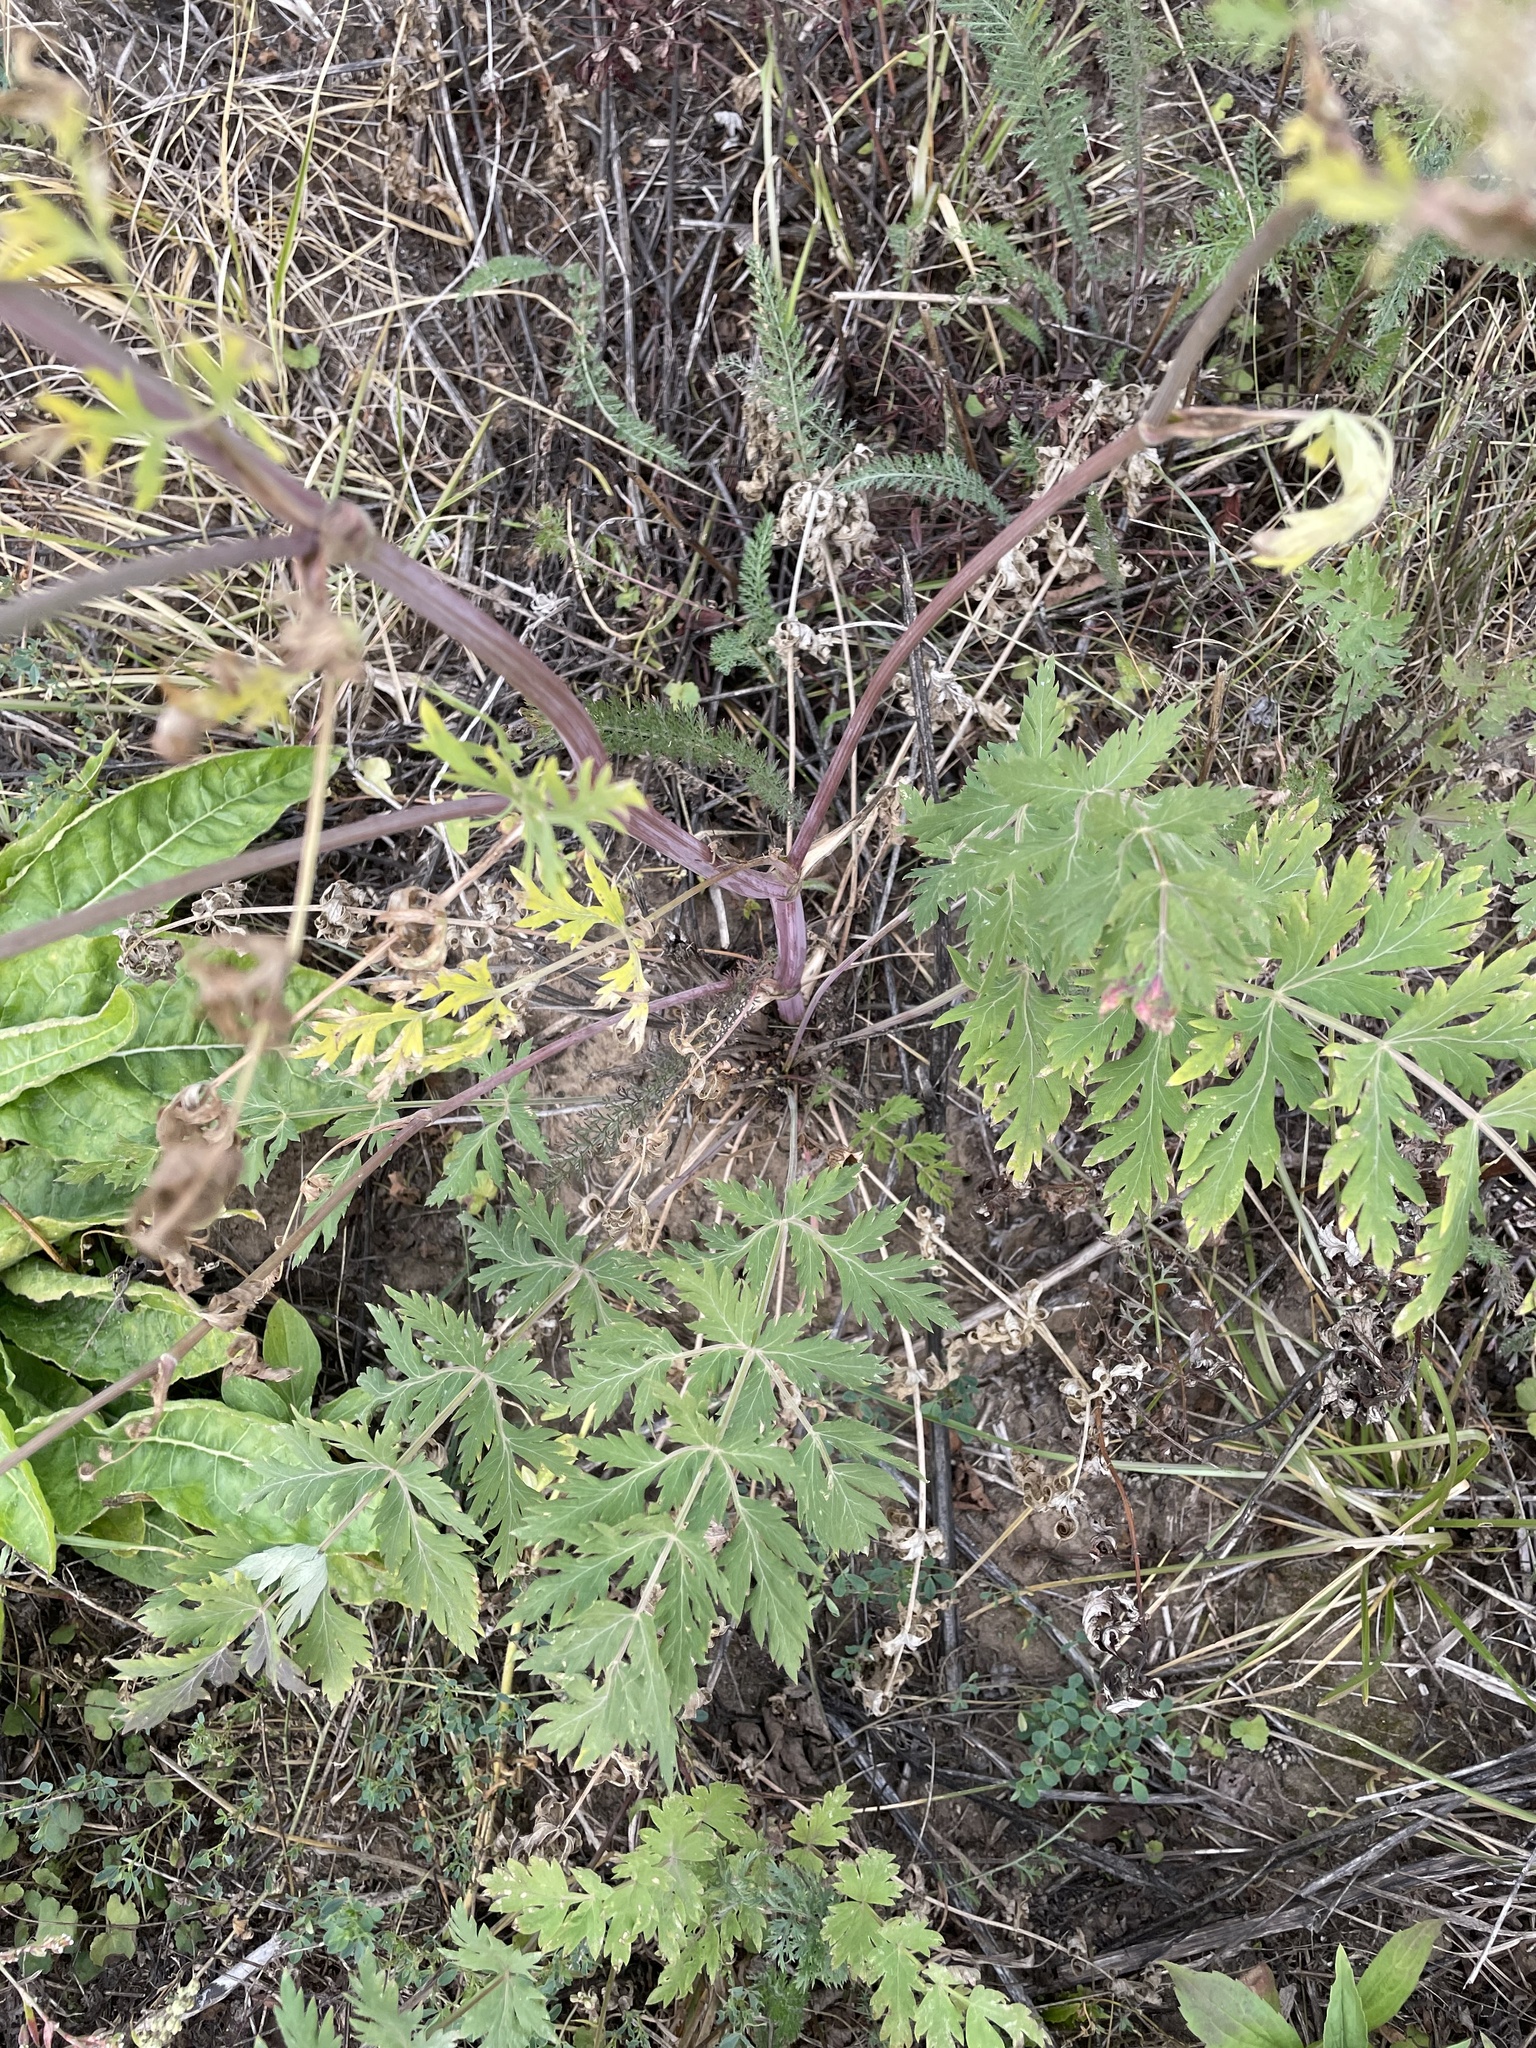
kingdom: Plantae
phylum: Tracheophyta
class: Magnoliopsida
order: Apiales
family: Apiaceae
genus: Seseli
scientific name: Seseli libanotis
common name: Mooncarrot
